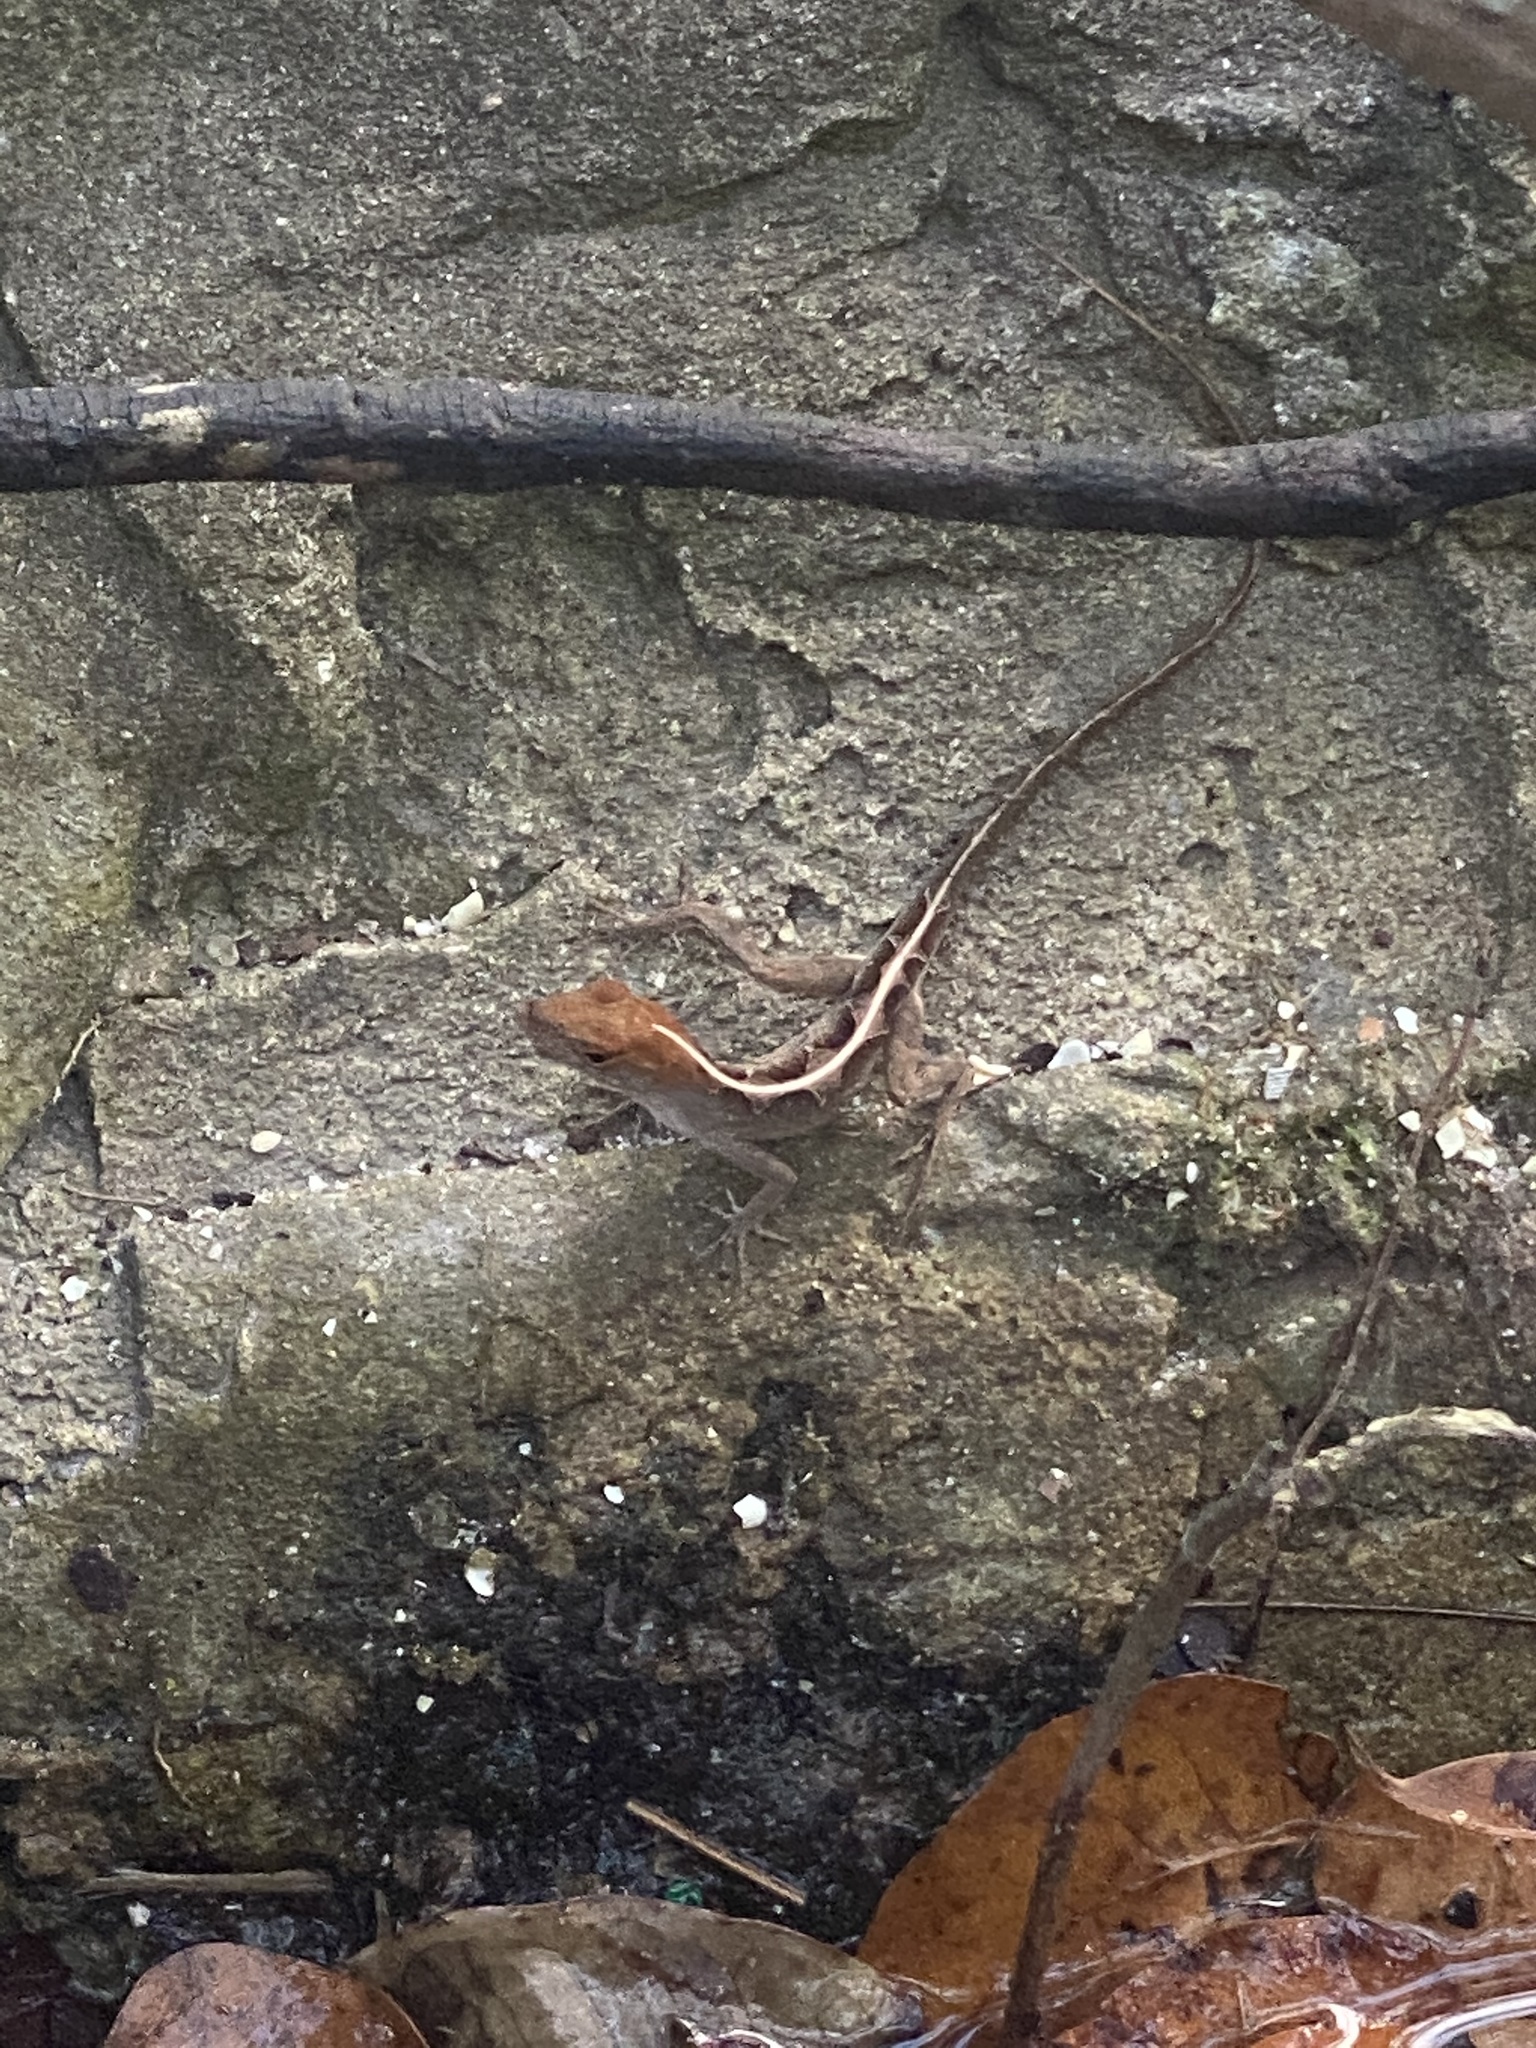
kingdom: Animalia
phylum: Chordata
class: Squamata
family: Dactyloidae
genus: Anolis
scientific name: Anolis sagrei
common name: Brown anole
